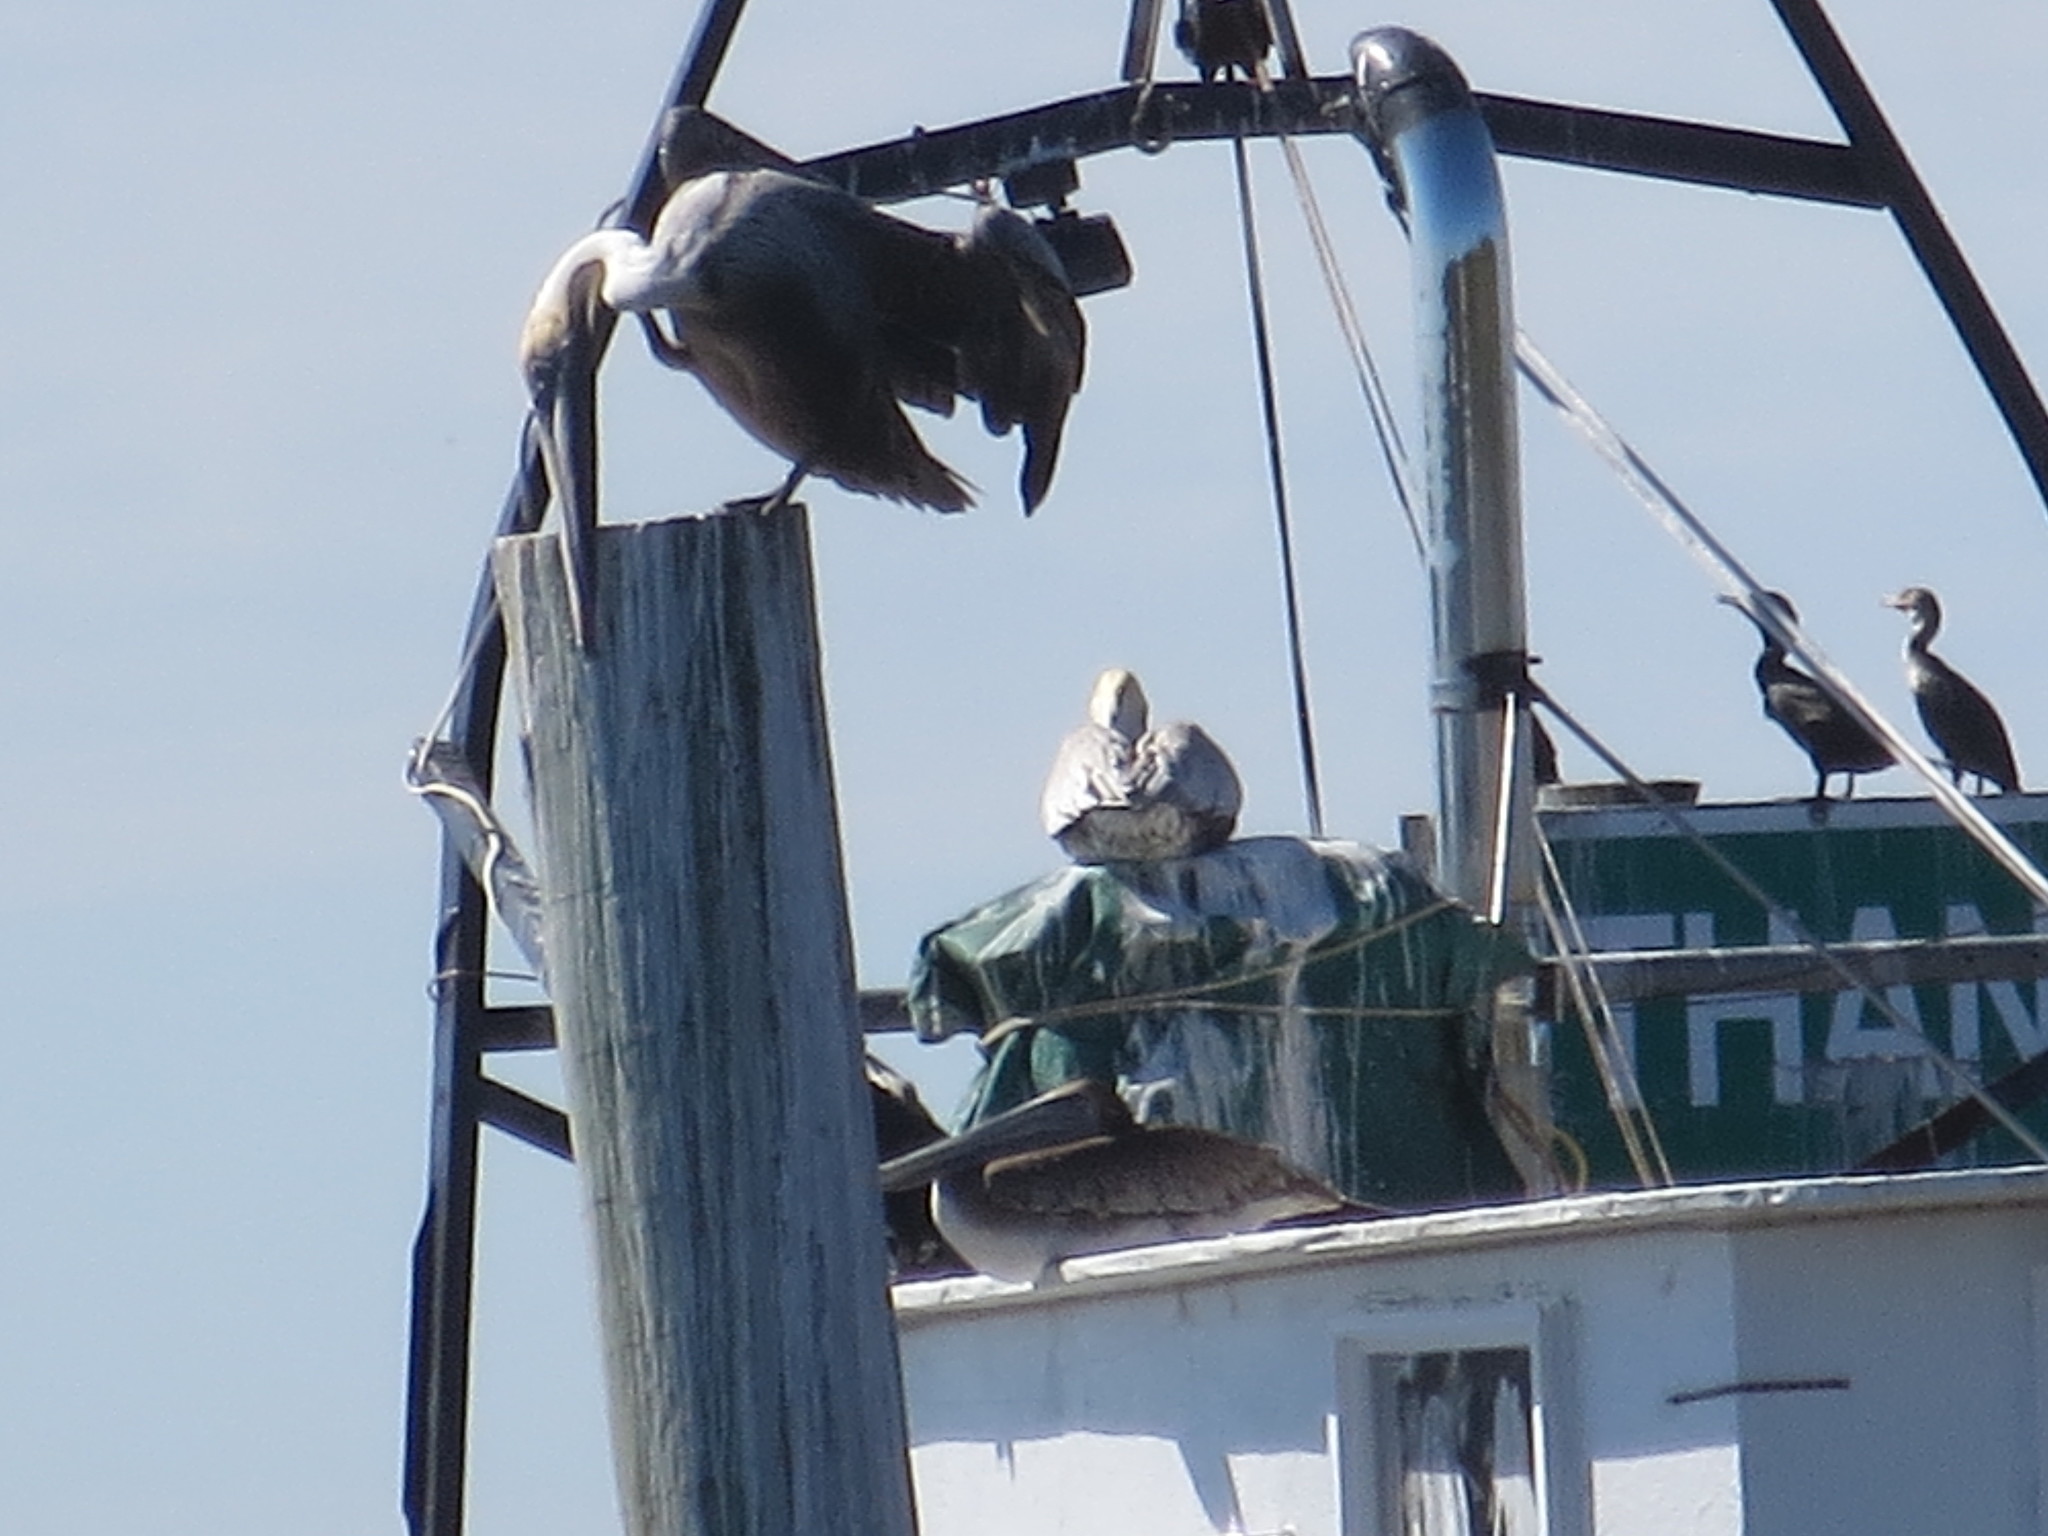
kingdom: Animalia
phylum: Chordata
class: Aves
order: Pelecaniformes
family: Pelecanidae
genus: Pelecanus
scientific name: Pelecanus occidentalis
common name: Brown pelican
